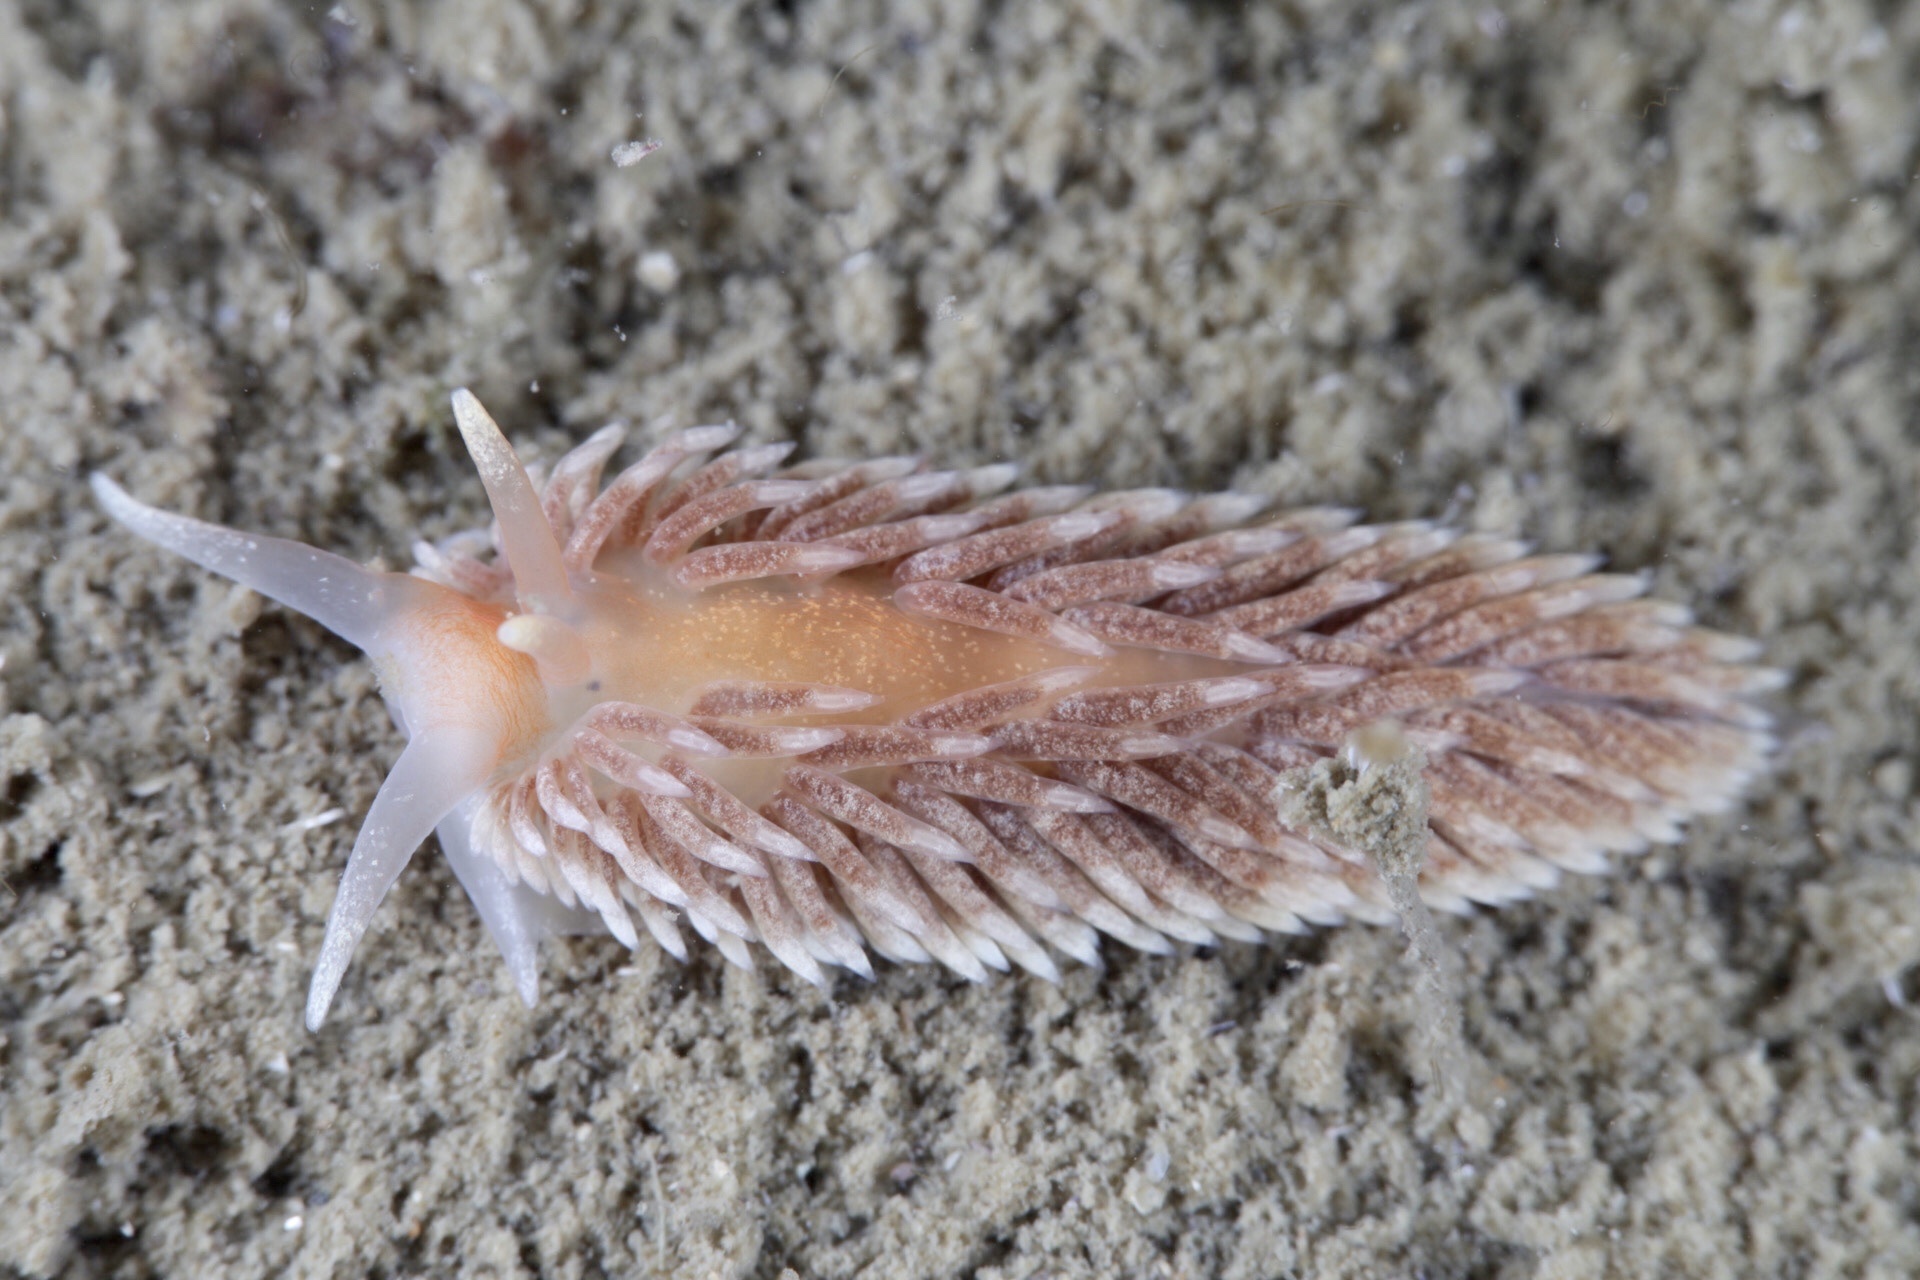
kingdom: Animalia
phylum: Mollusca
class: Gastropoda
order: Nudibranchia
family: Aeolidiidae
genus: Aeolidiella
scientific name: Aeolidiella glauca
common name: Orange-brown aeolid
